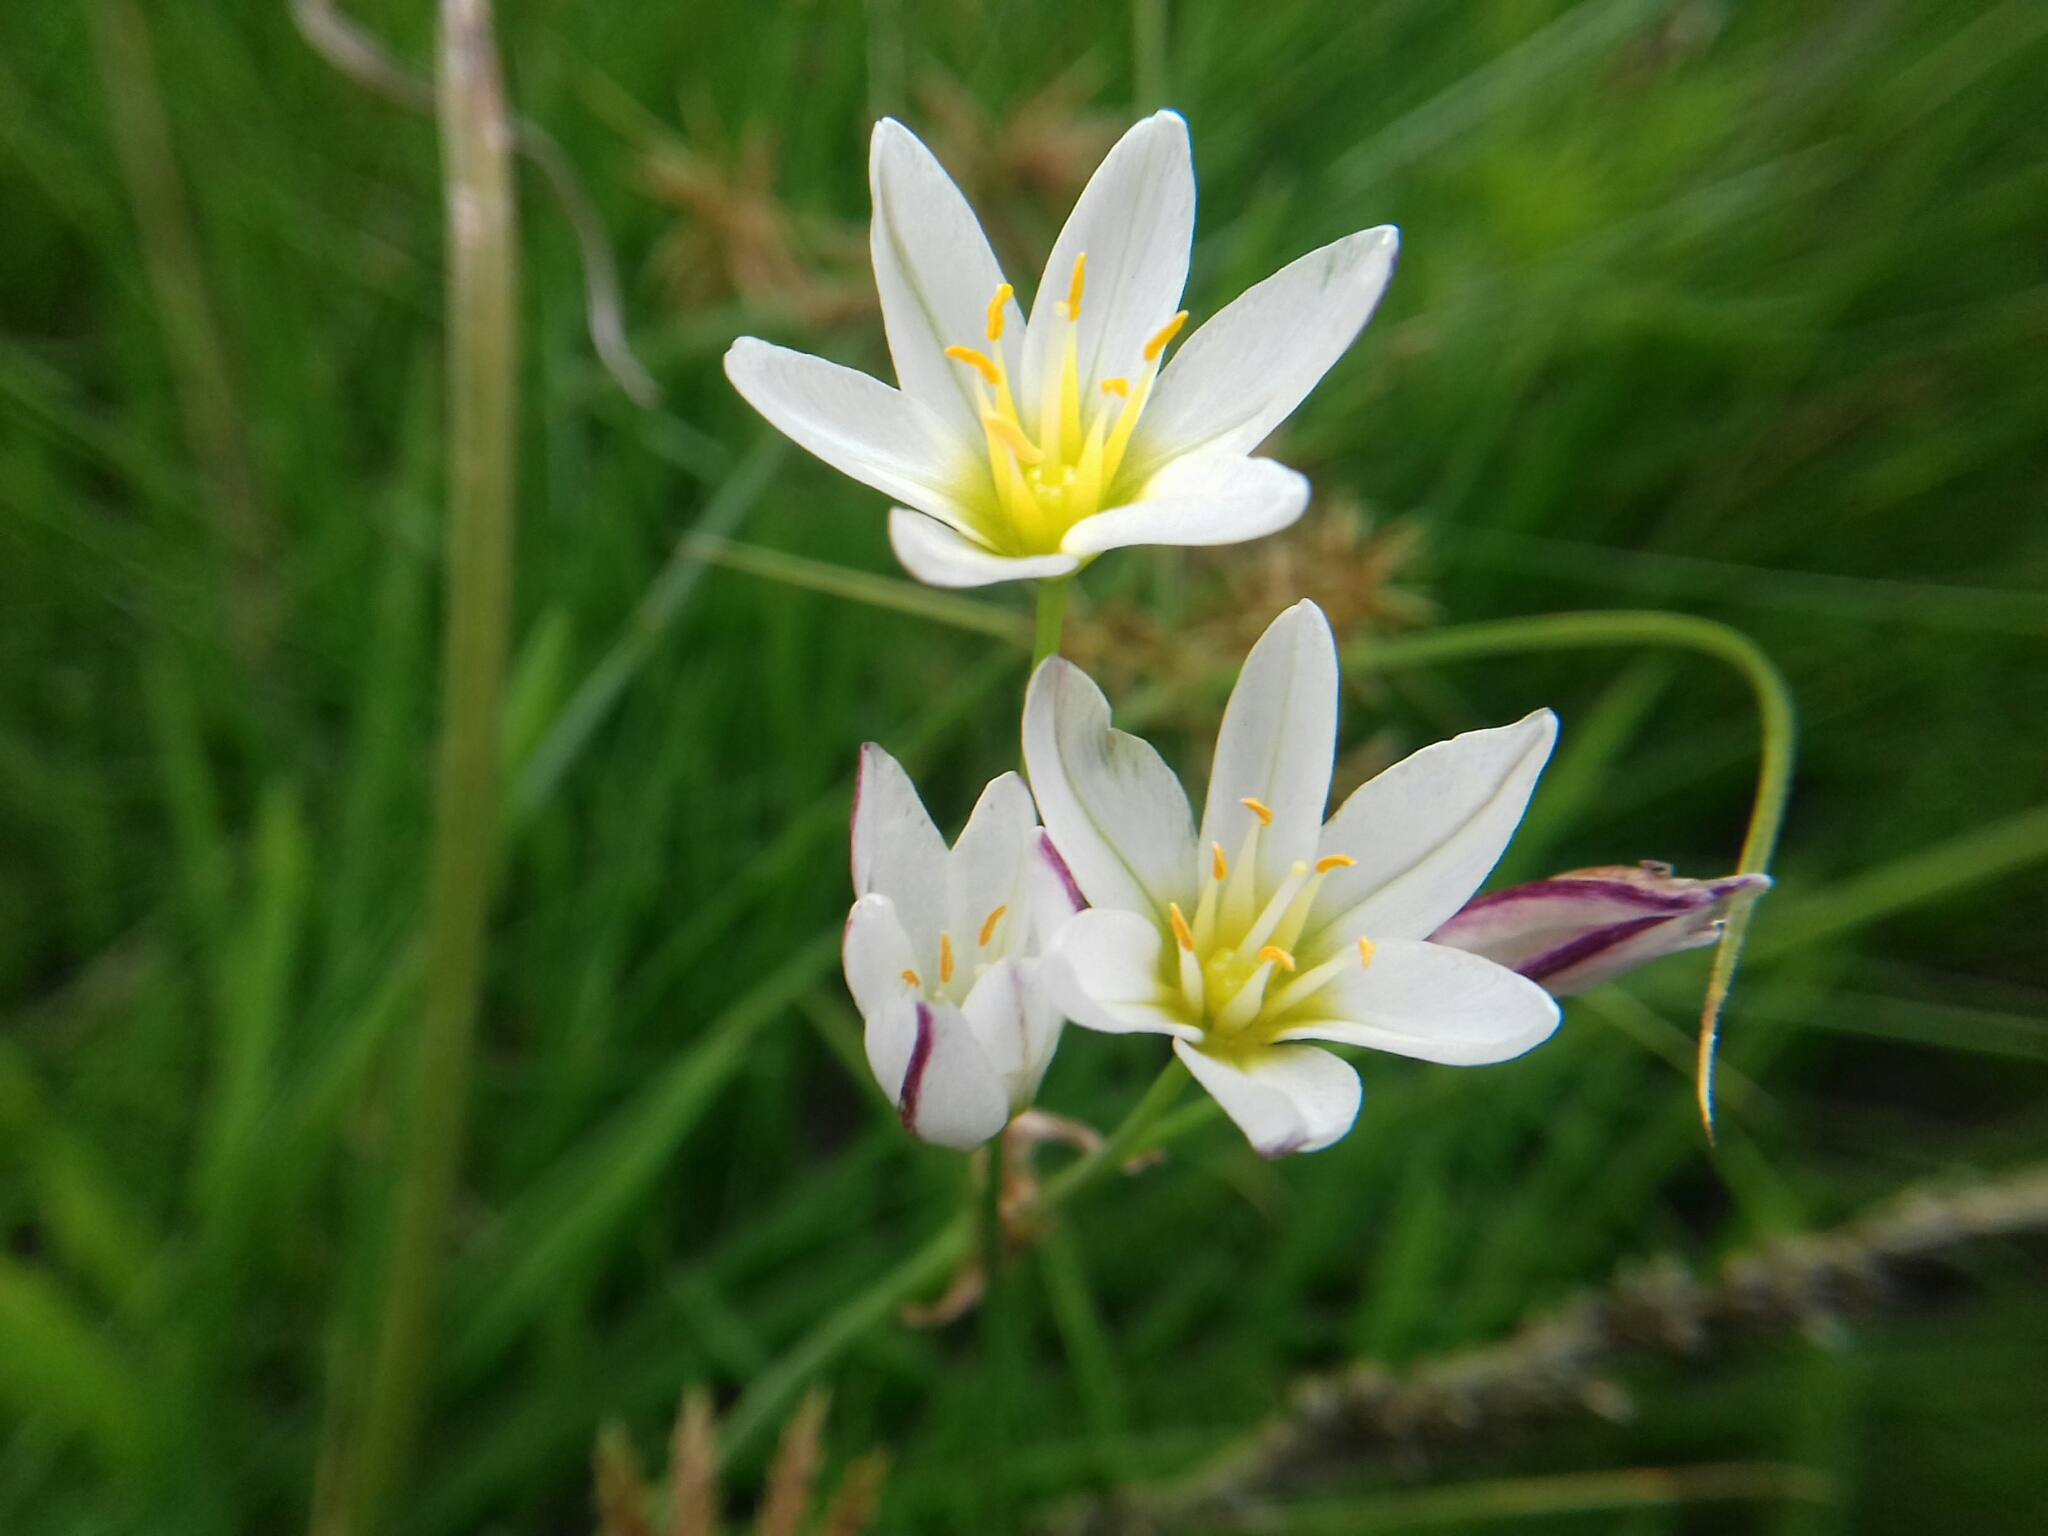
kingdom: Plantae
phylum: Tracheophyta
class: Liliopsida
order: Asparagales
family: Amaryllidaceae
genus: Nothoscordum
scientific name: Nothoscordum bivalve
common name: Crow-poison
